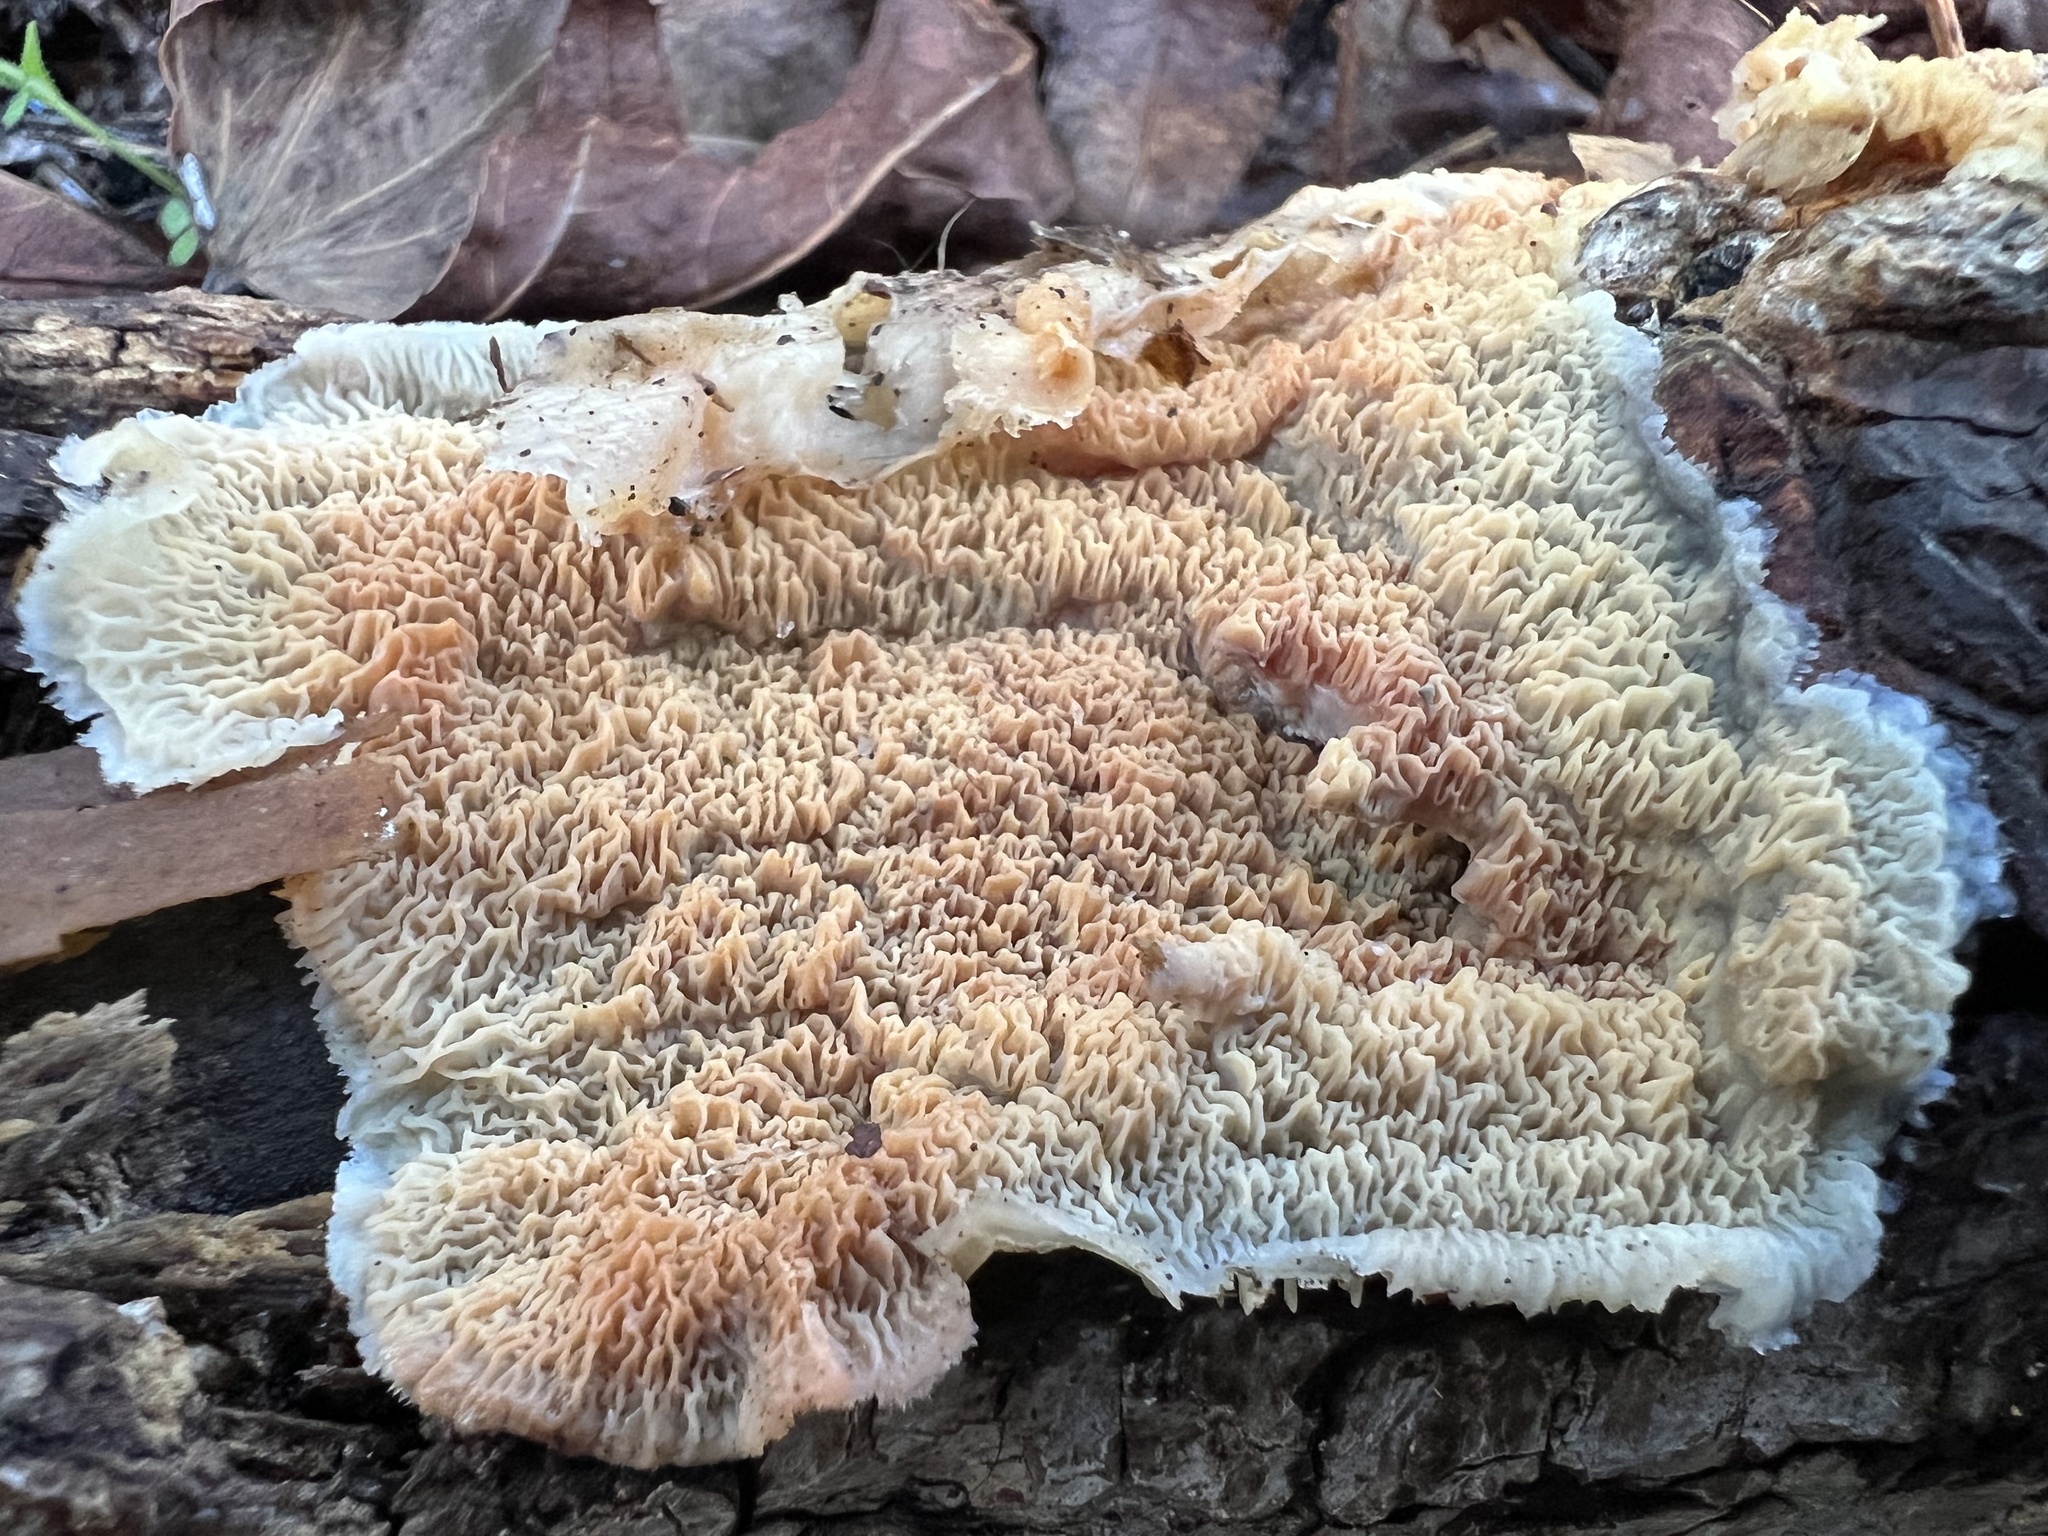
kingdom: Fungi
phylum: Basidiomycota
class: Agaricomycetes
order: Polyporales
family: Meruliaceae
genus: Phlebia
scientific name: Phlebia tremellosa
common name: Jelly rot
